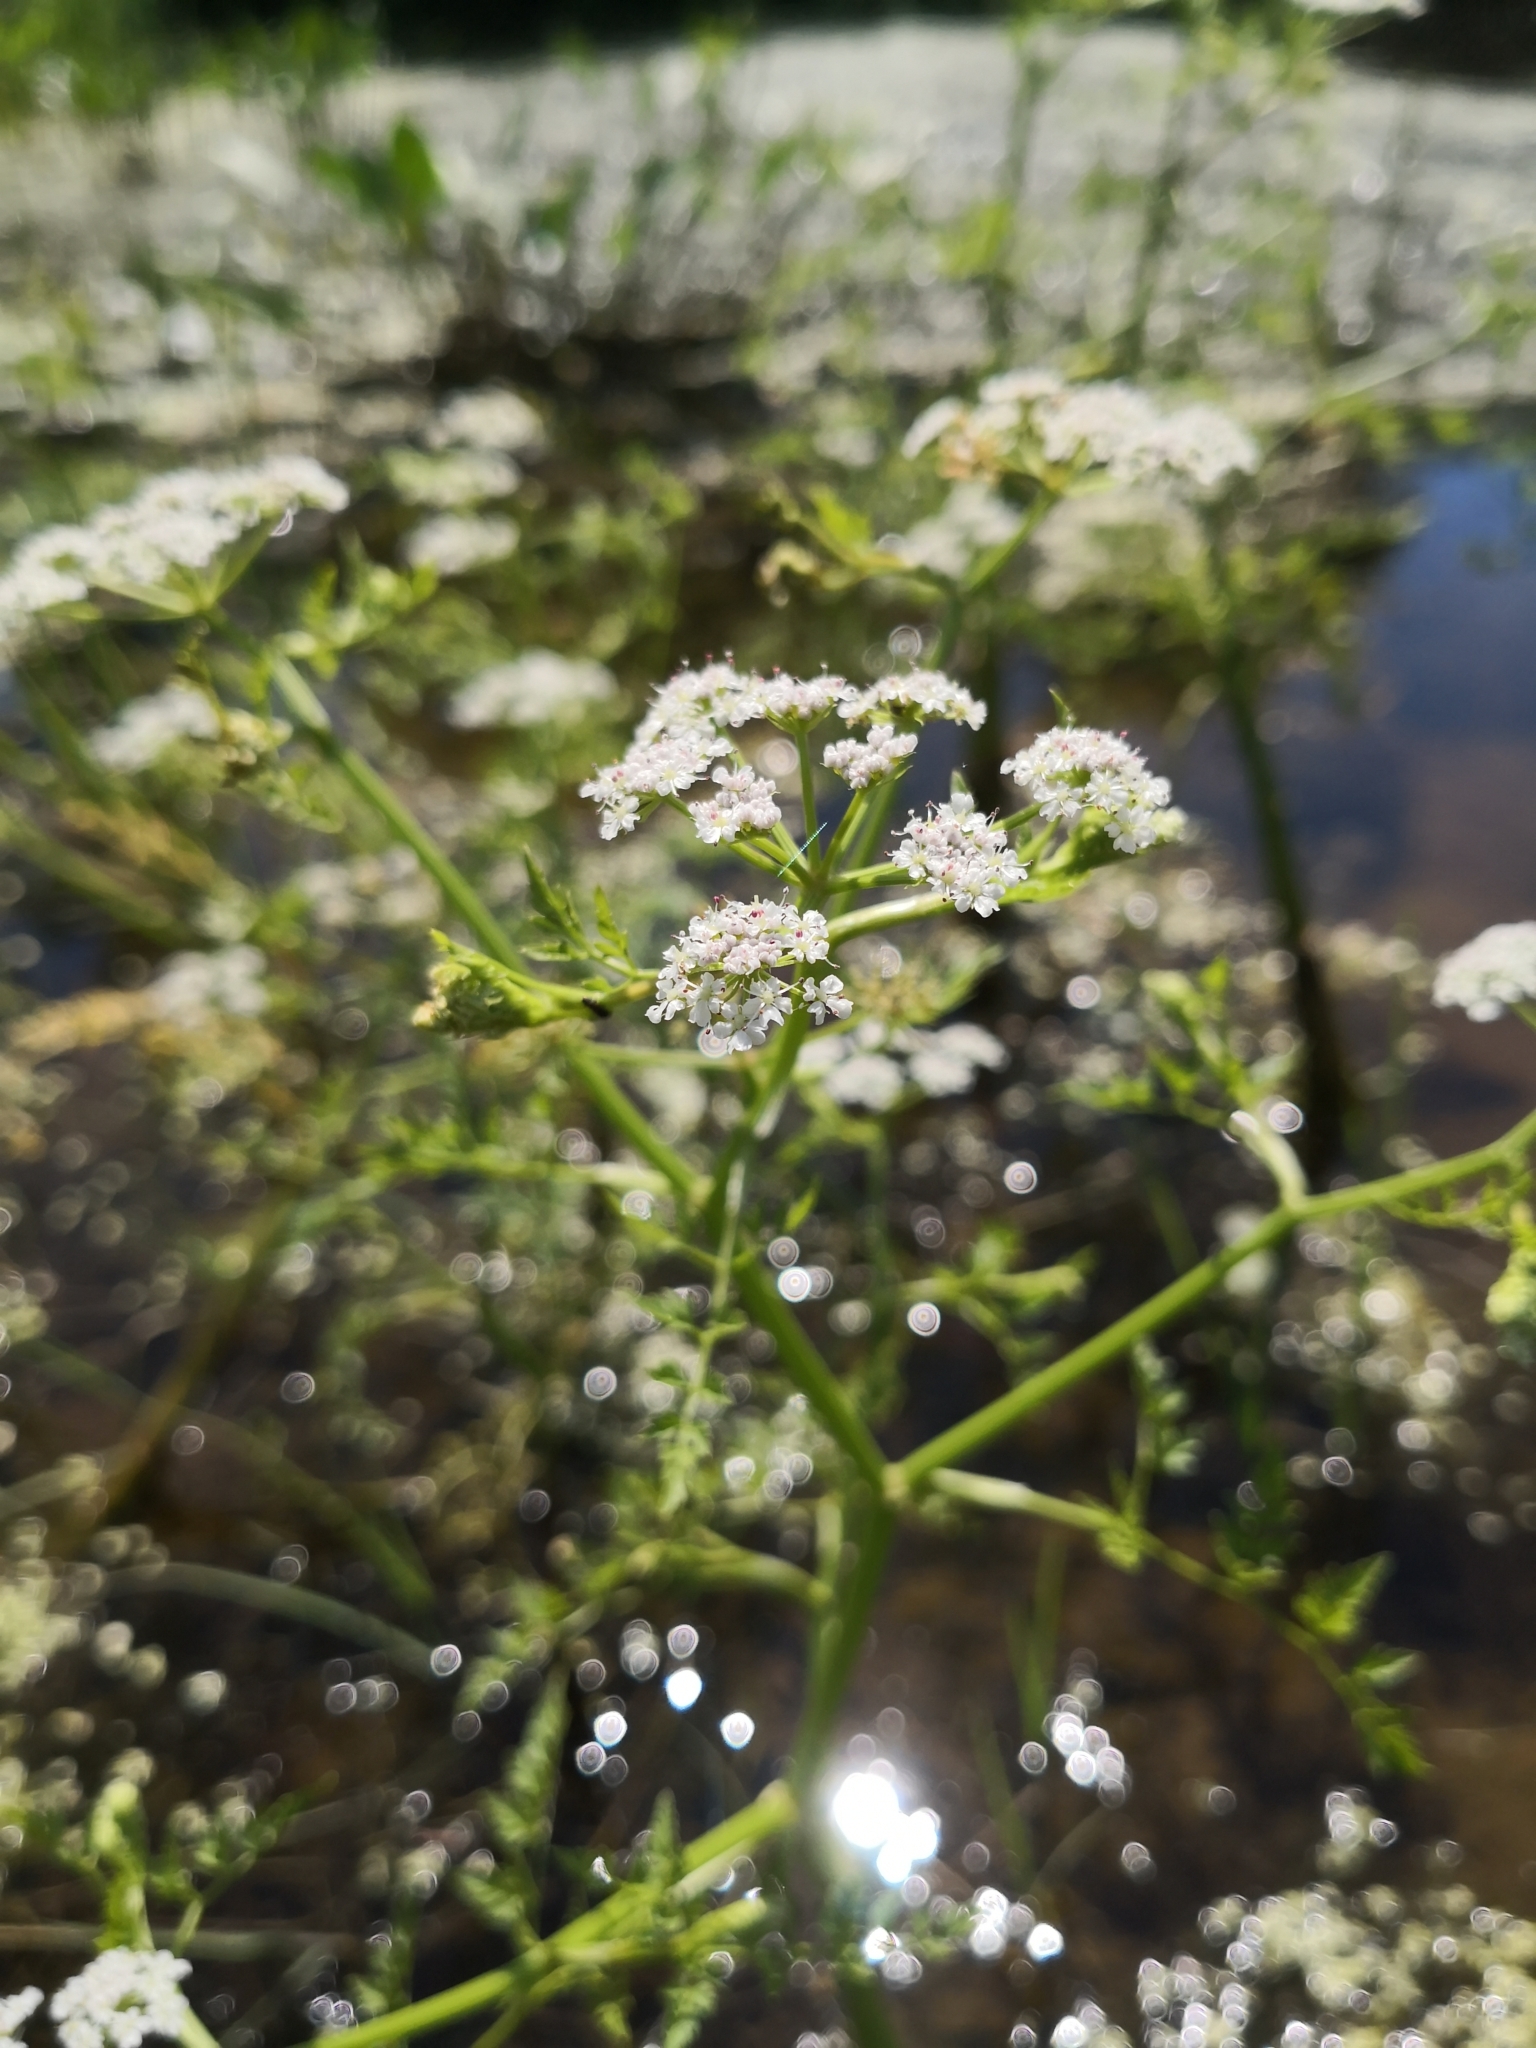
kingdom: Plantae
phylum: Tracheophyta
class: Magnoliopsida
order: Apiales
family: Apiaceae
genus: Oenanthe
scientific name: Oenanthe aquatica
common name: Fine-leaved water-dropwort
